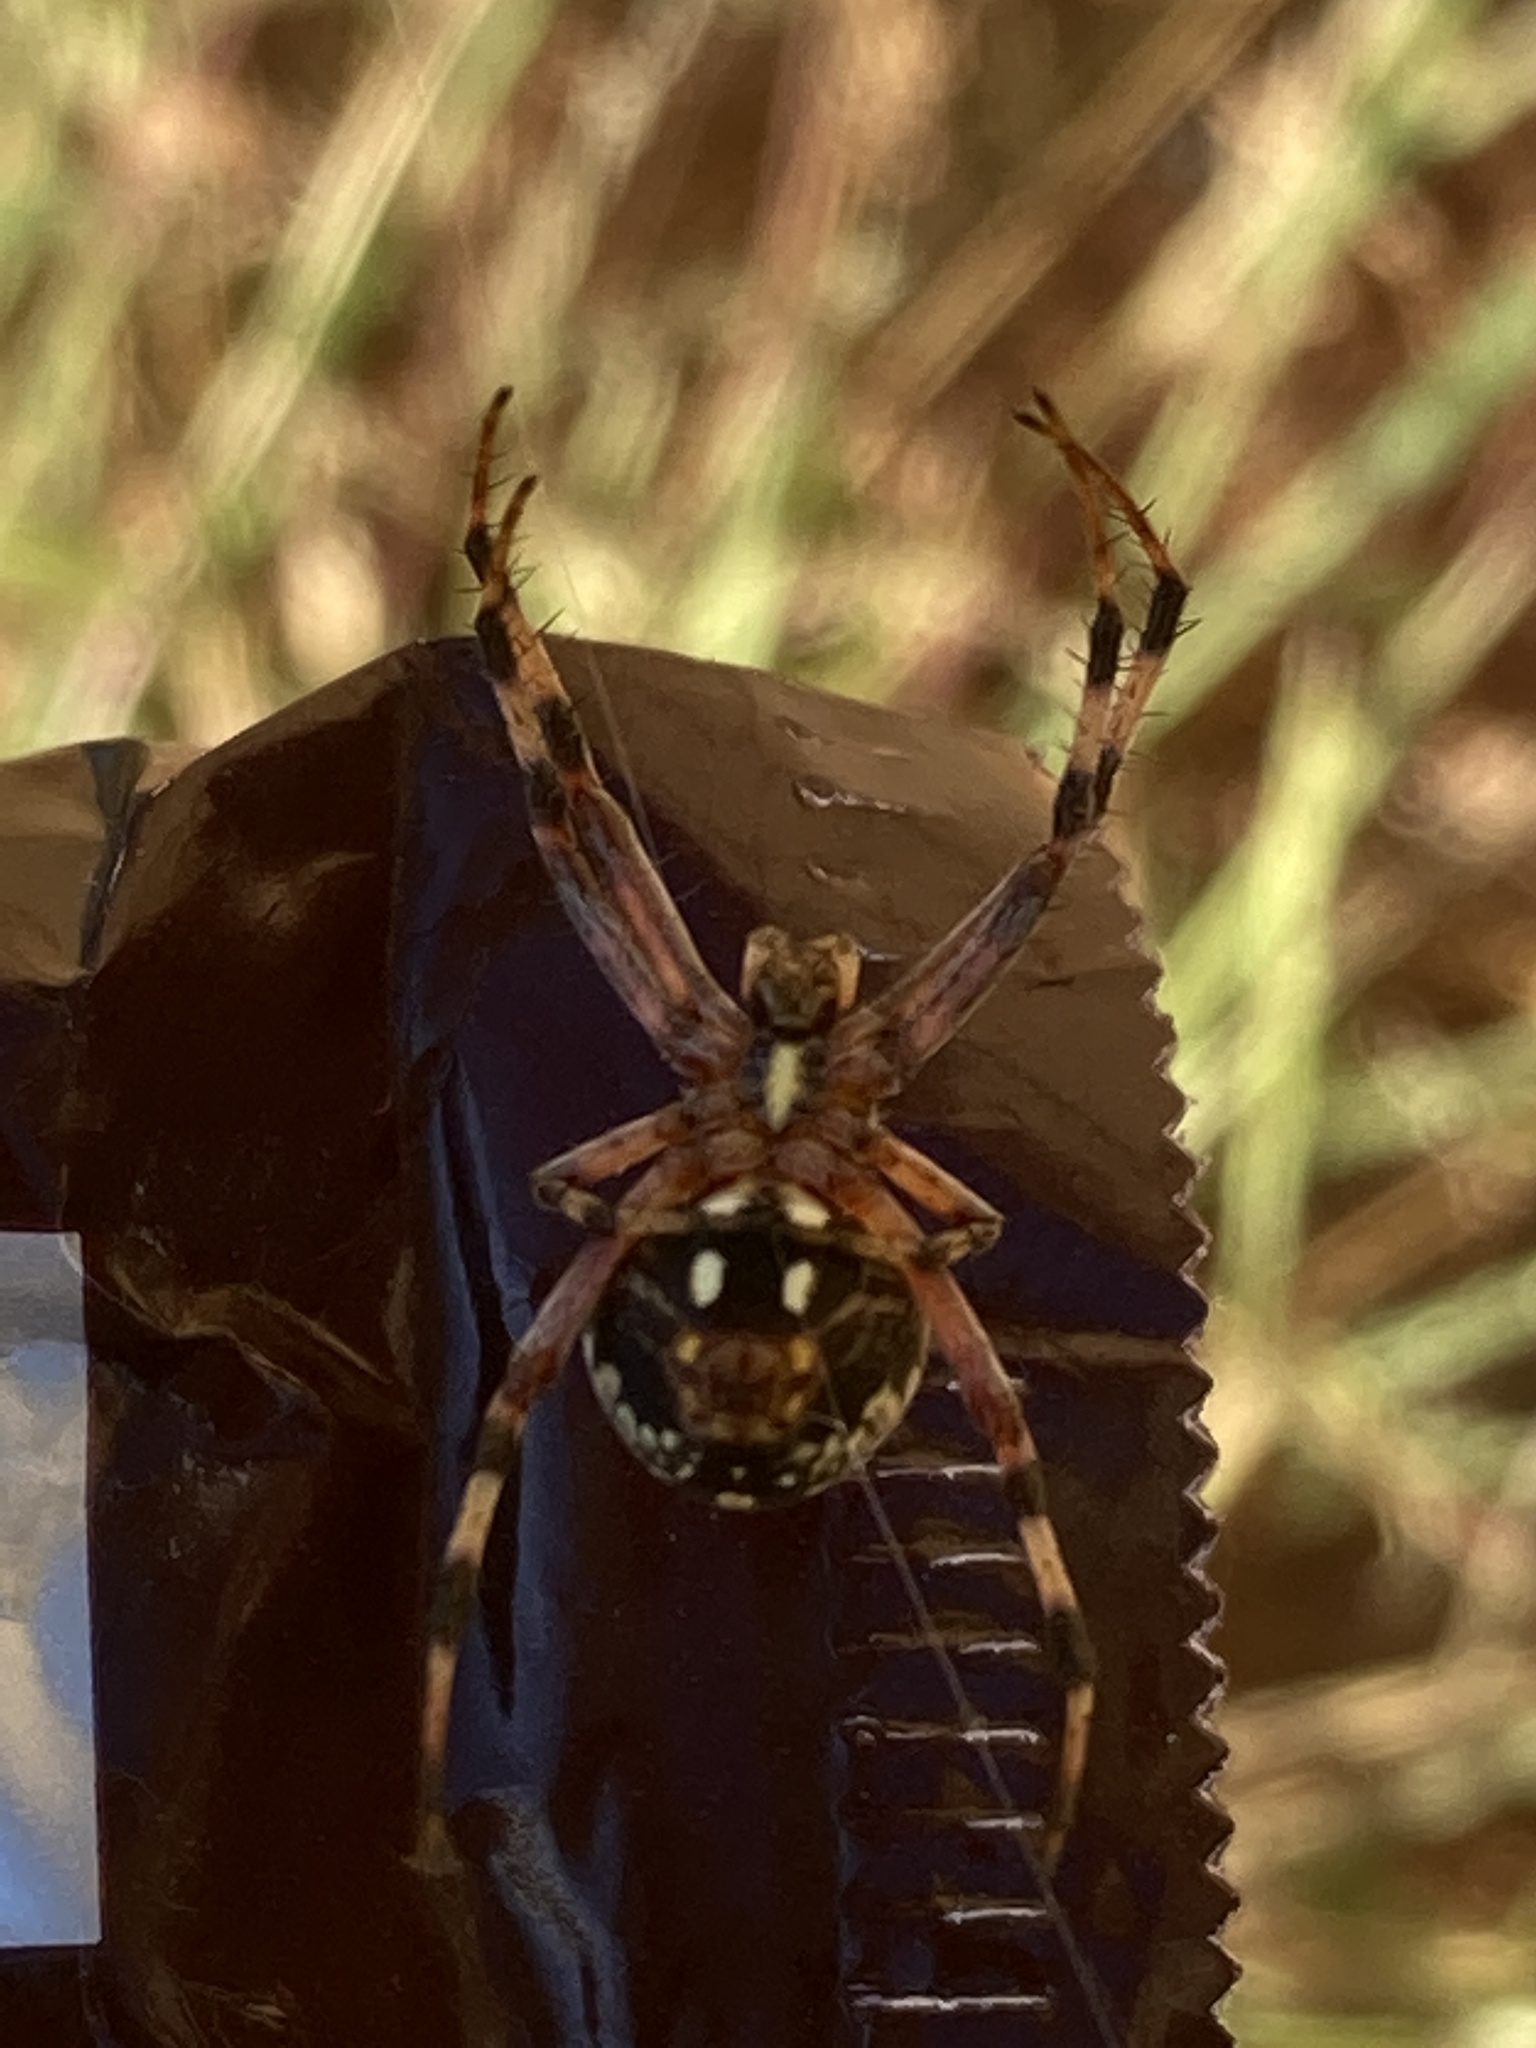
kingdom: Animalia
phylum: Arthropoda
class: Arachnida
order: Araneae
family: Araneidae
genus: Neoscona
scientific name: Neoscona oaxacensis
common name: Orb weavers
